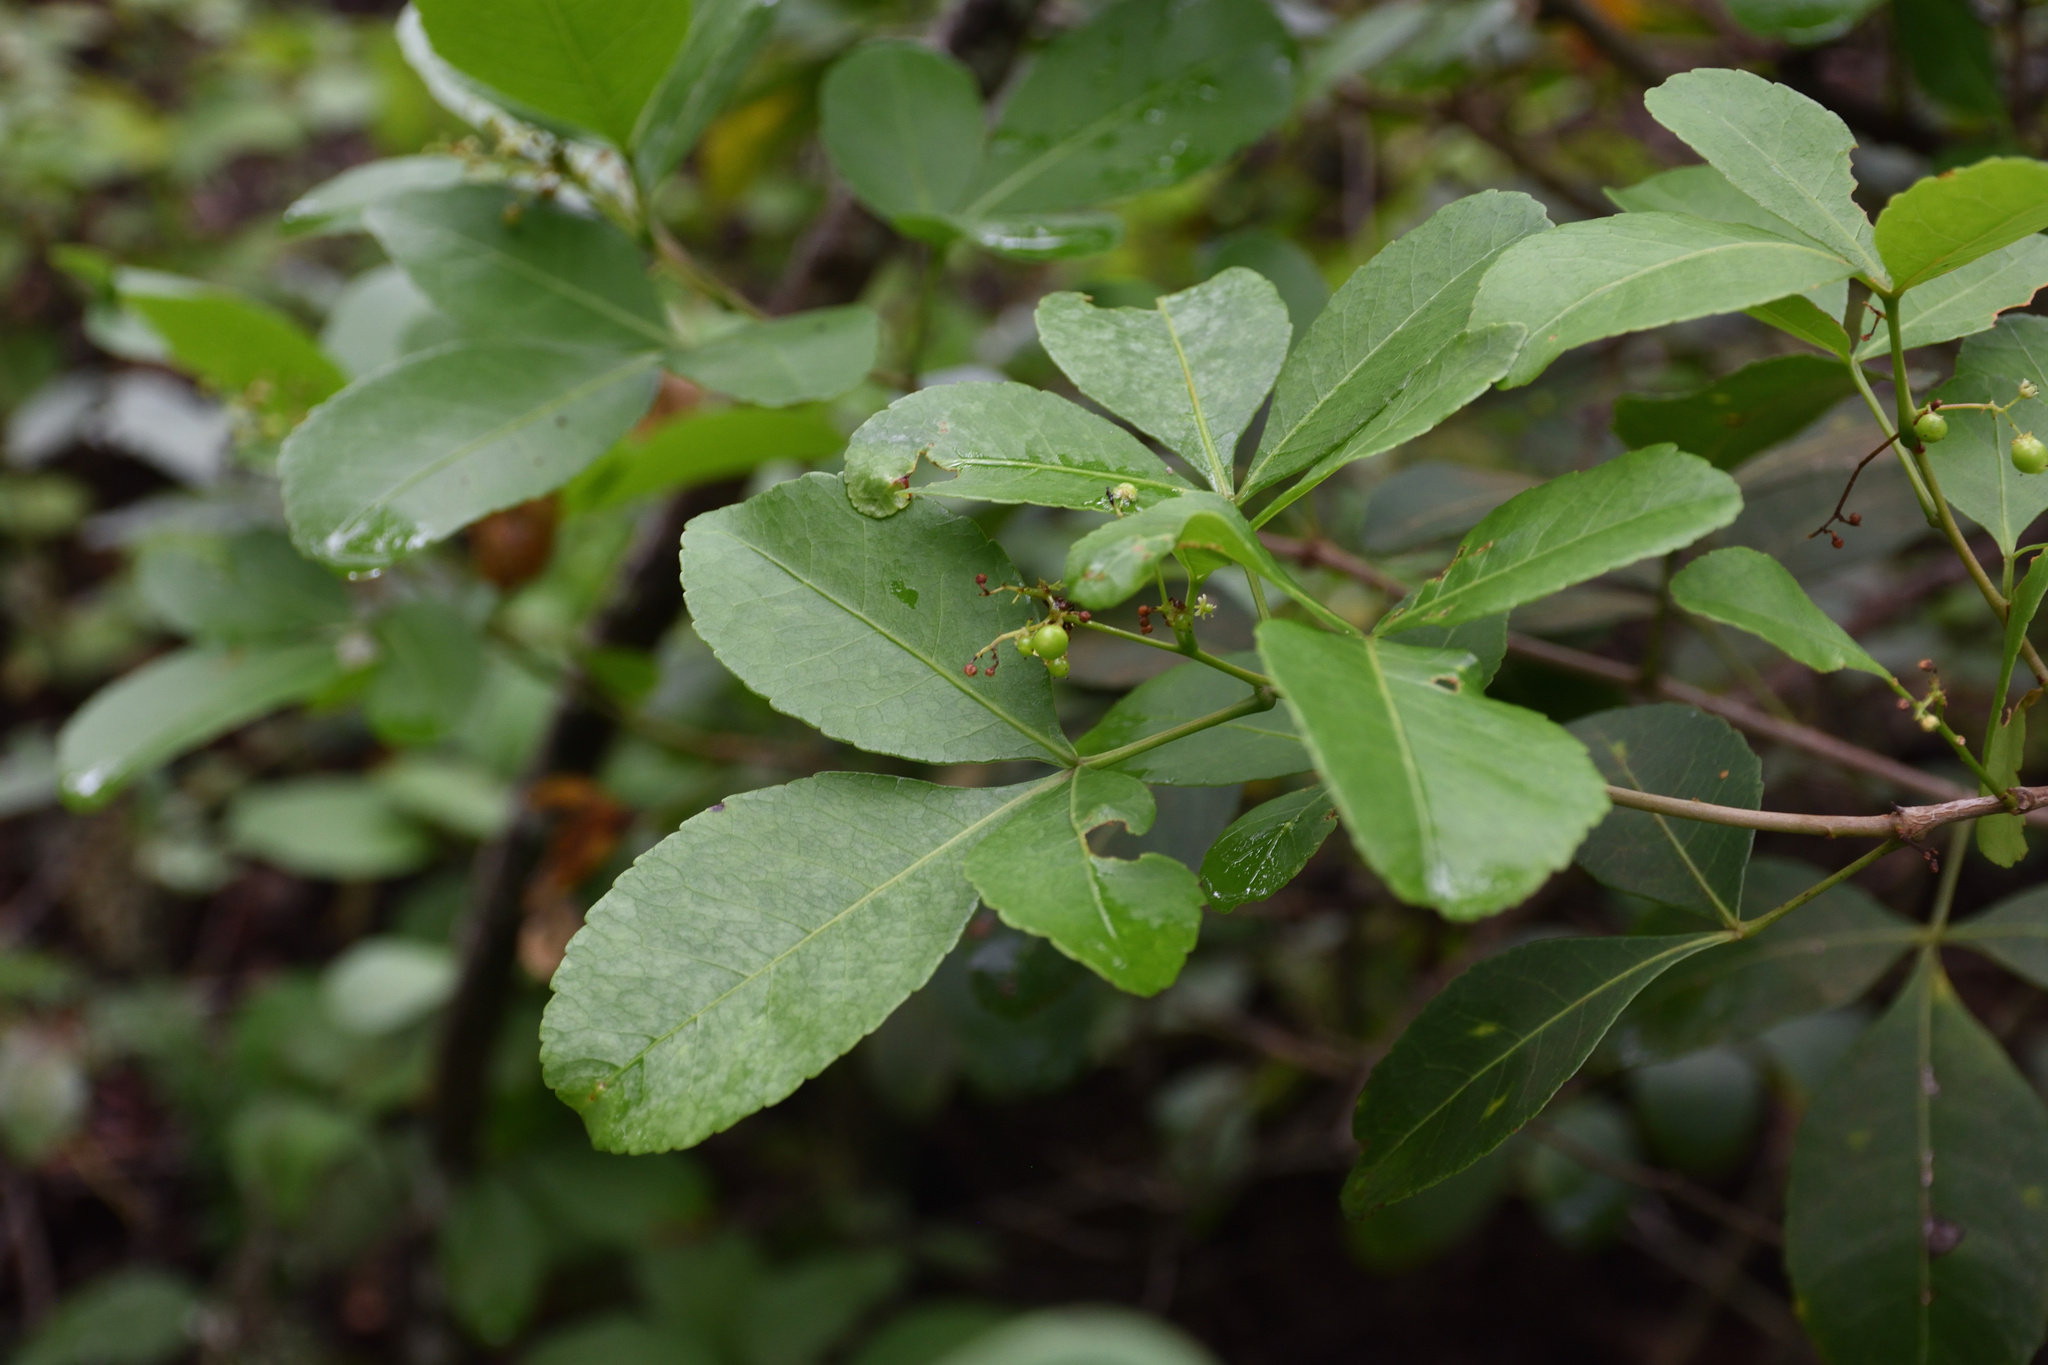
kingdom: Plantae
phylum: Tracheophyta
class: Magnoliopsida
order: Sapindales
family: Anacardiaceae
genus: Searsia
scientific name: Searsia natalensis
